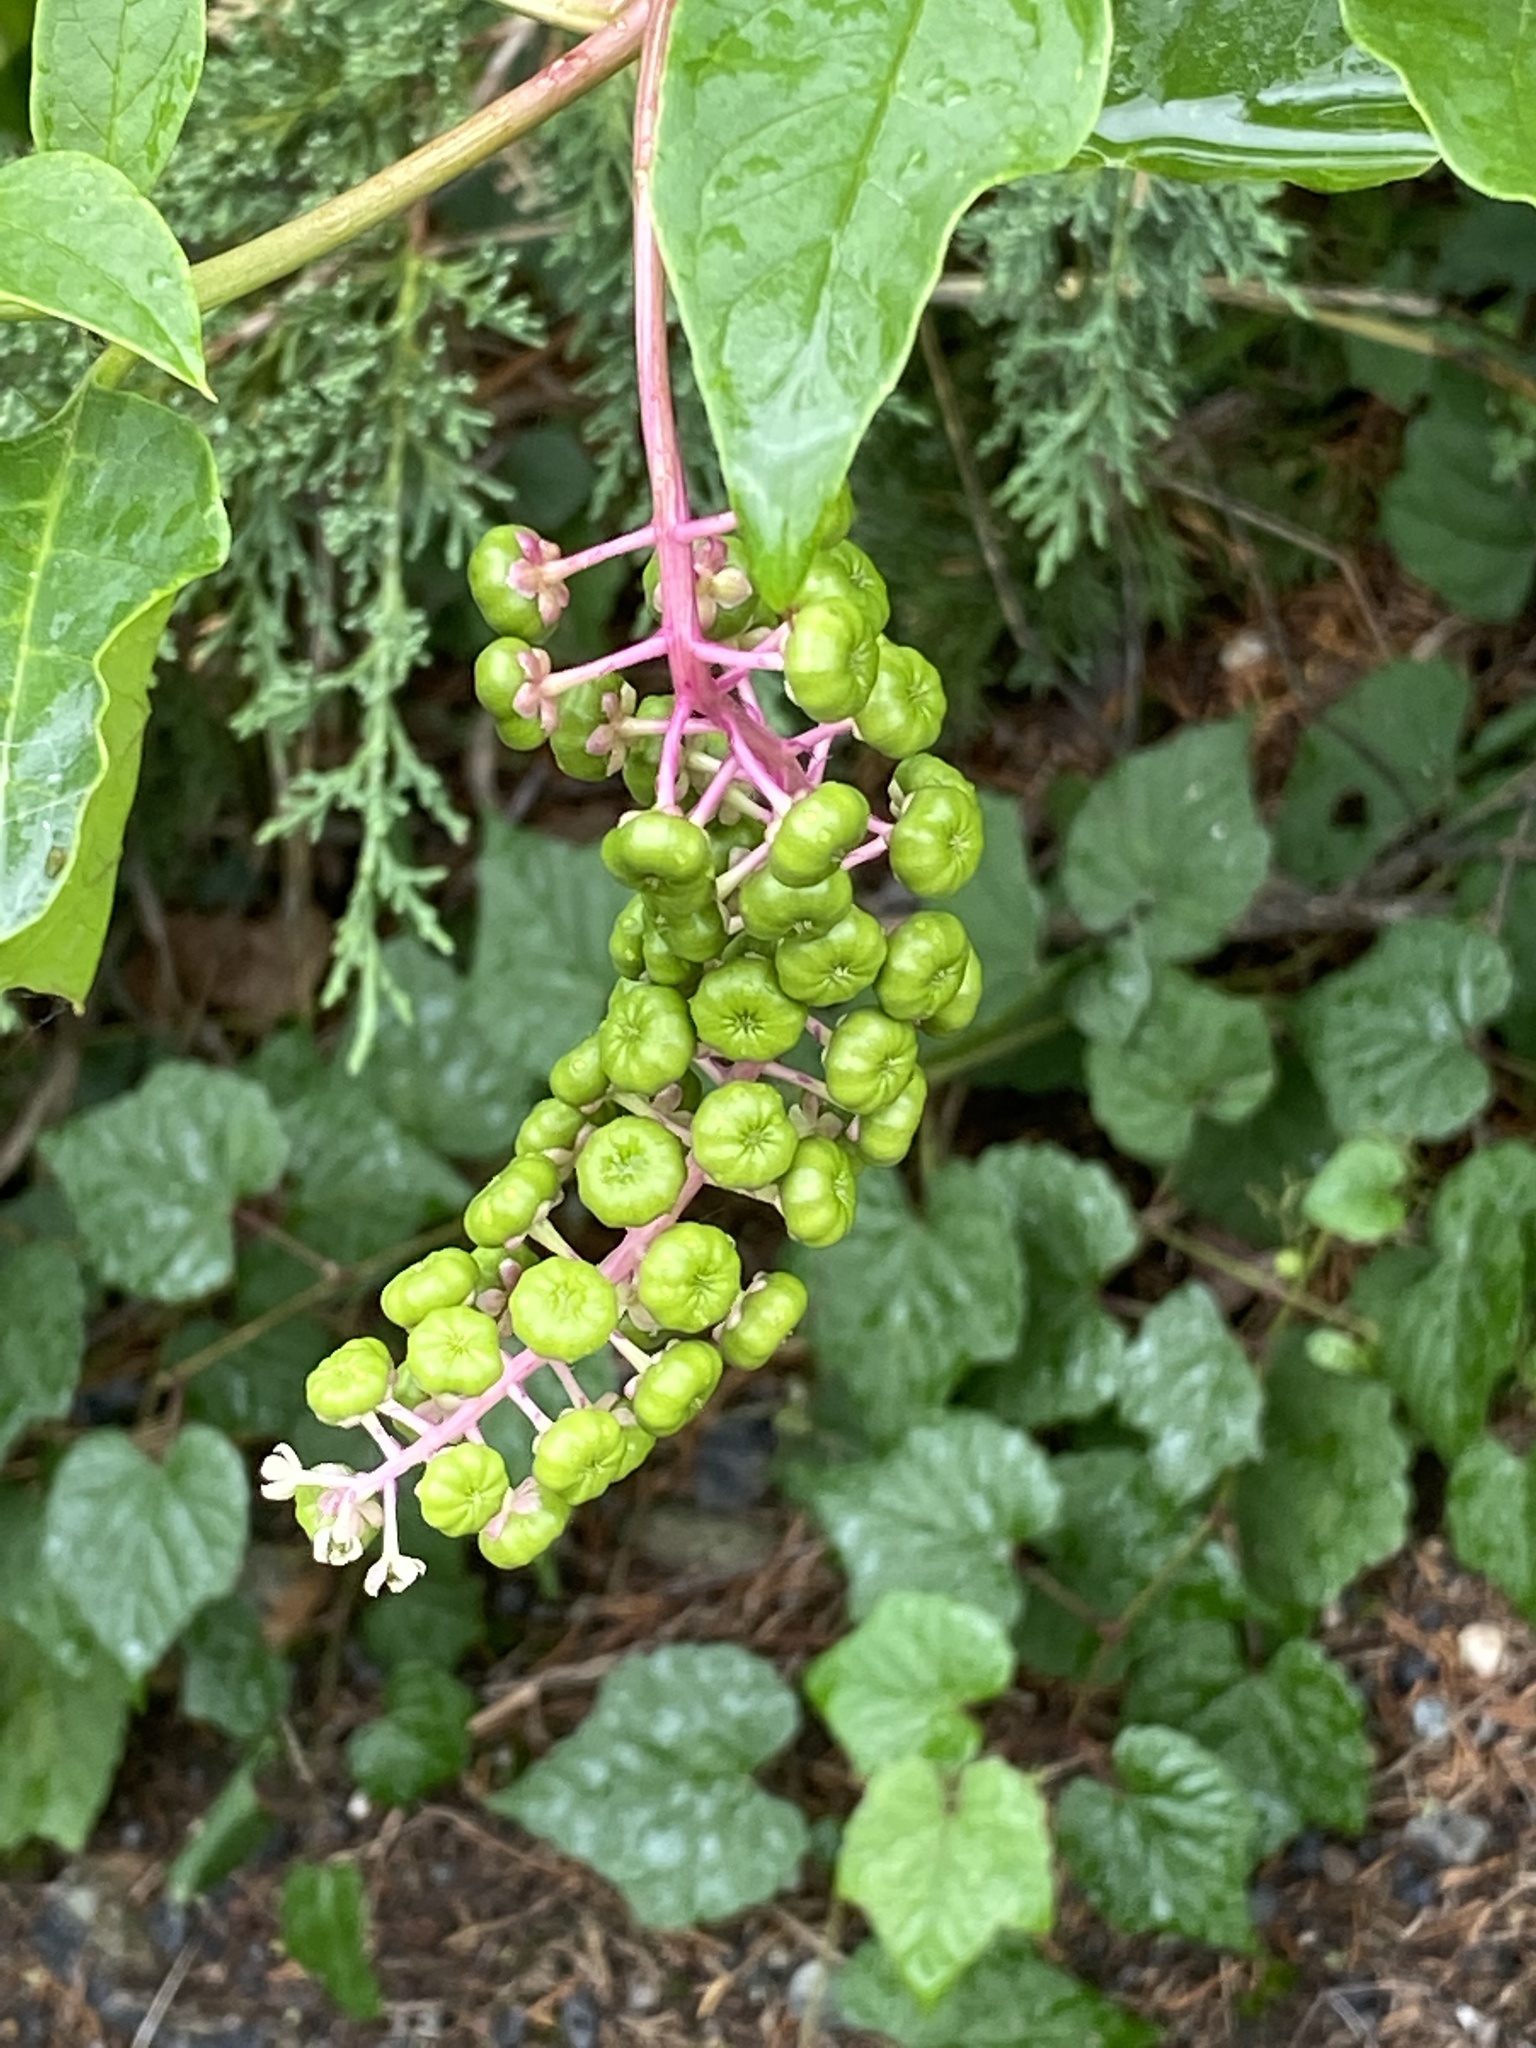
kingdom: Plantae
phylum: Tracheophyta
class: Magnoliopsida
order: Caryophyllales
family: Phytolaccaceae
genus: Phytolacca
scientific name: Phytolacca americana
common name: American pokeweed
